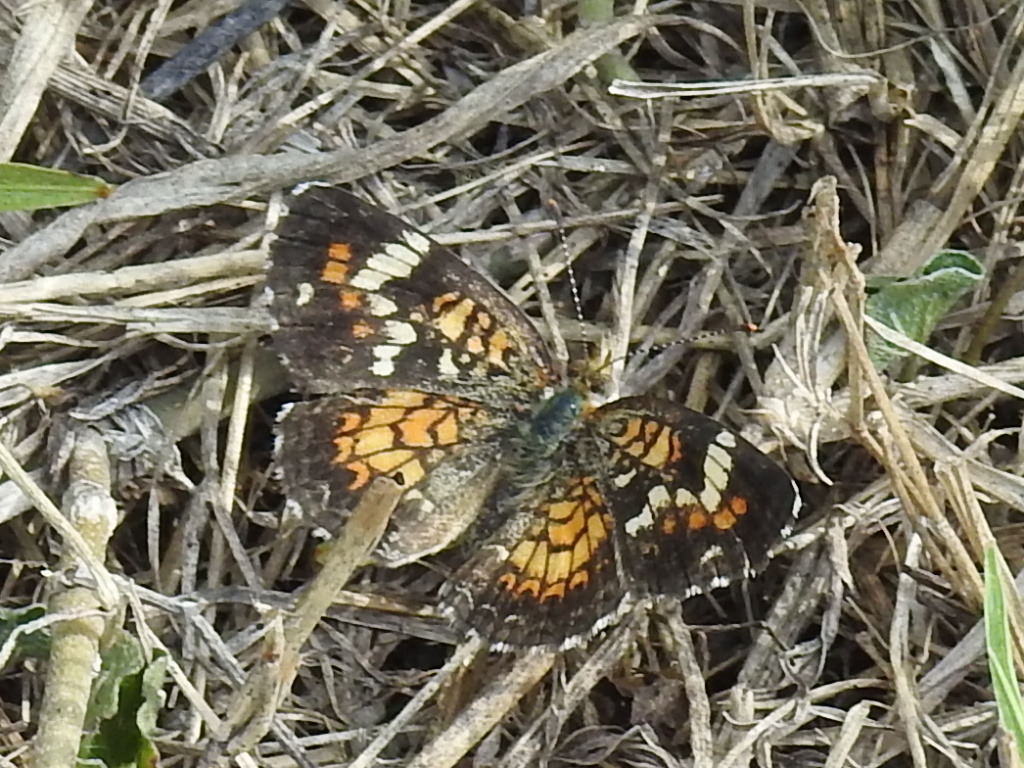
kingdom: Animalia
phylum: Arthropoda
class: Insecta
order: Lepidoptera
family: Nymphalidae
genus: Phyciodes
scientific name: Phyciodes phaon
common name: Phaon crescent
